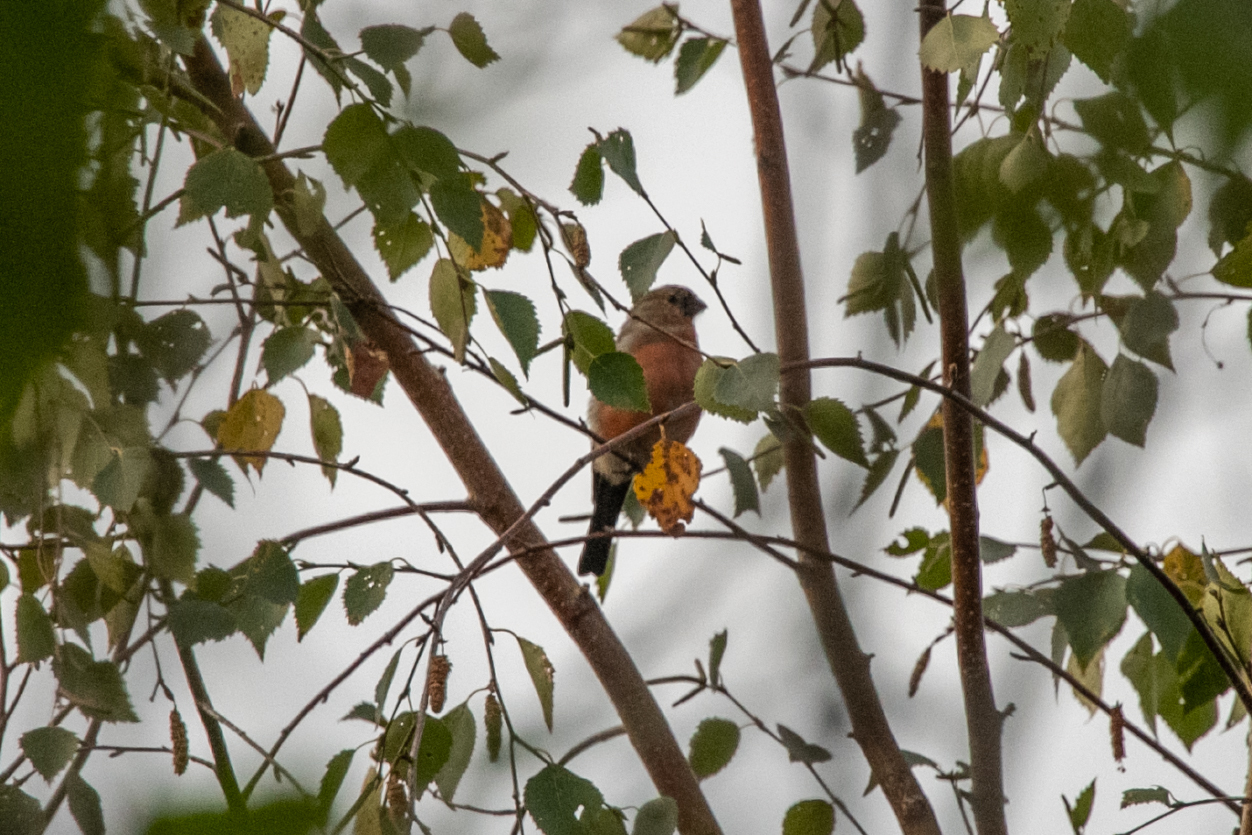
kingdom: Animalia
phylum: Chordata
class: Aves
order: Passeriformes
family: Fringillidae
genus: Pyrrhula
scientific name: Pyrrhula pyrrhula
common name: Eurasian bullfinch
